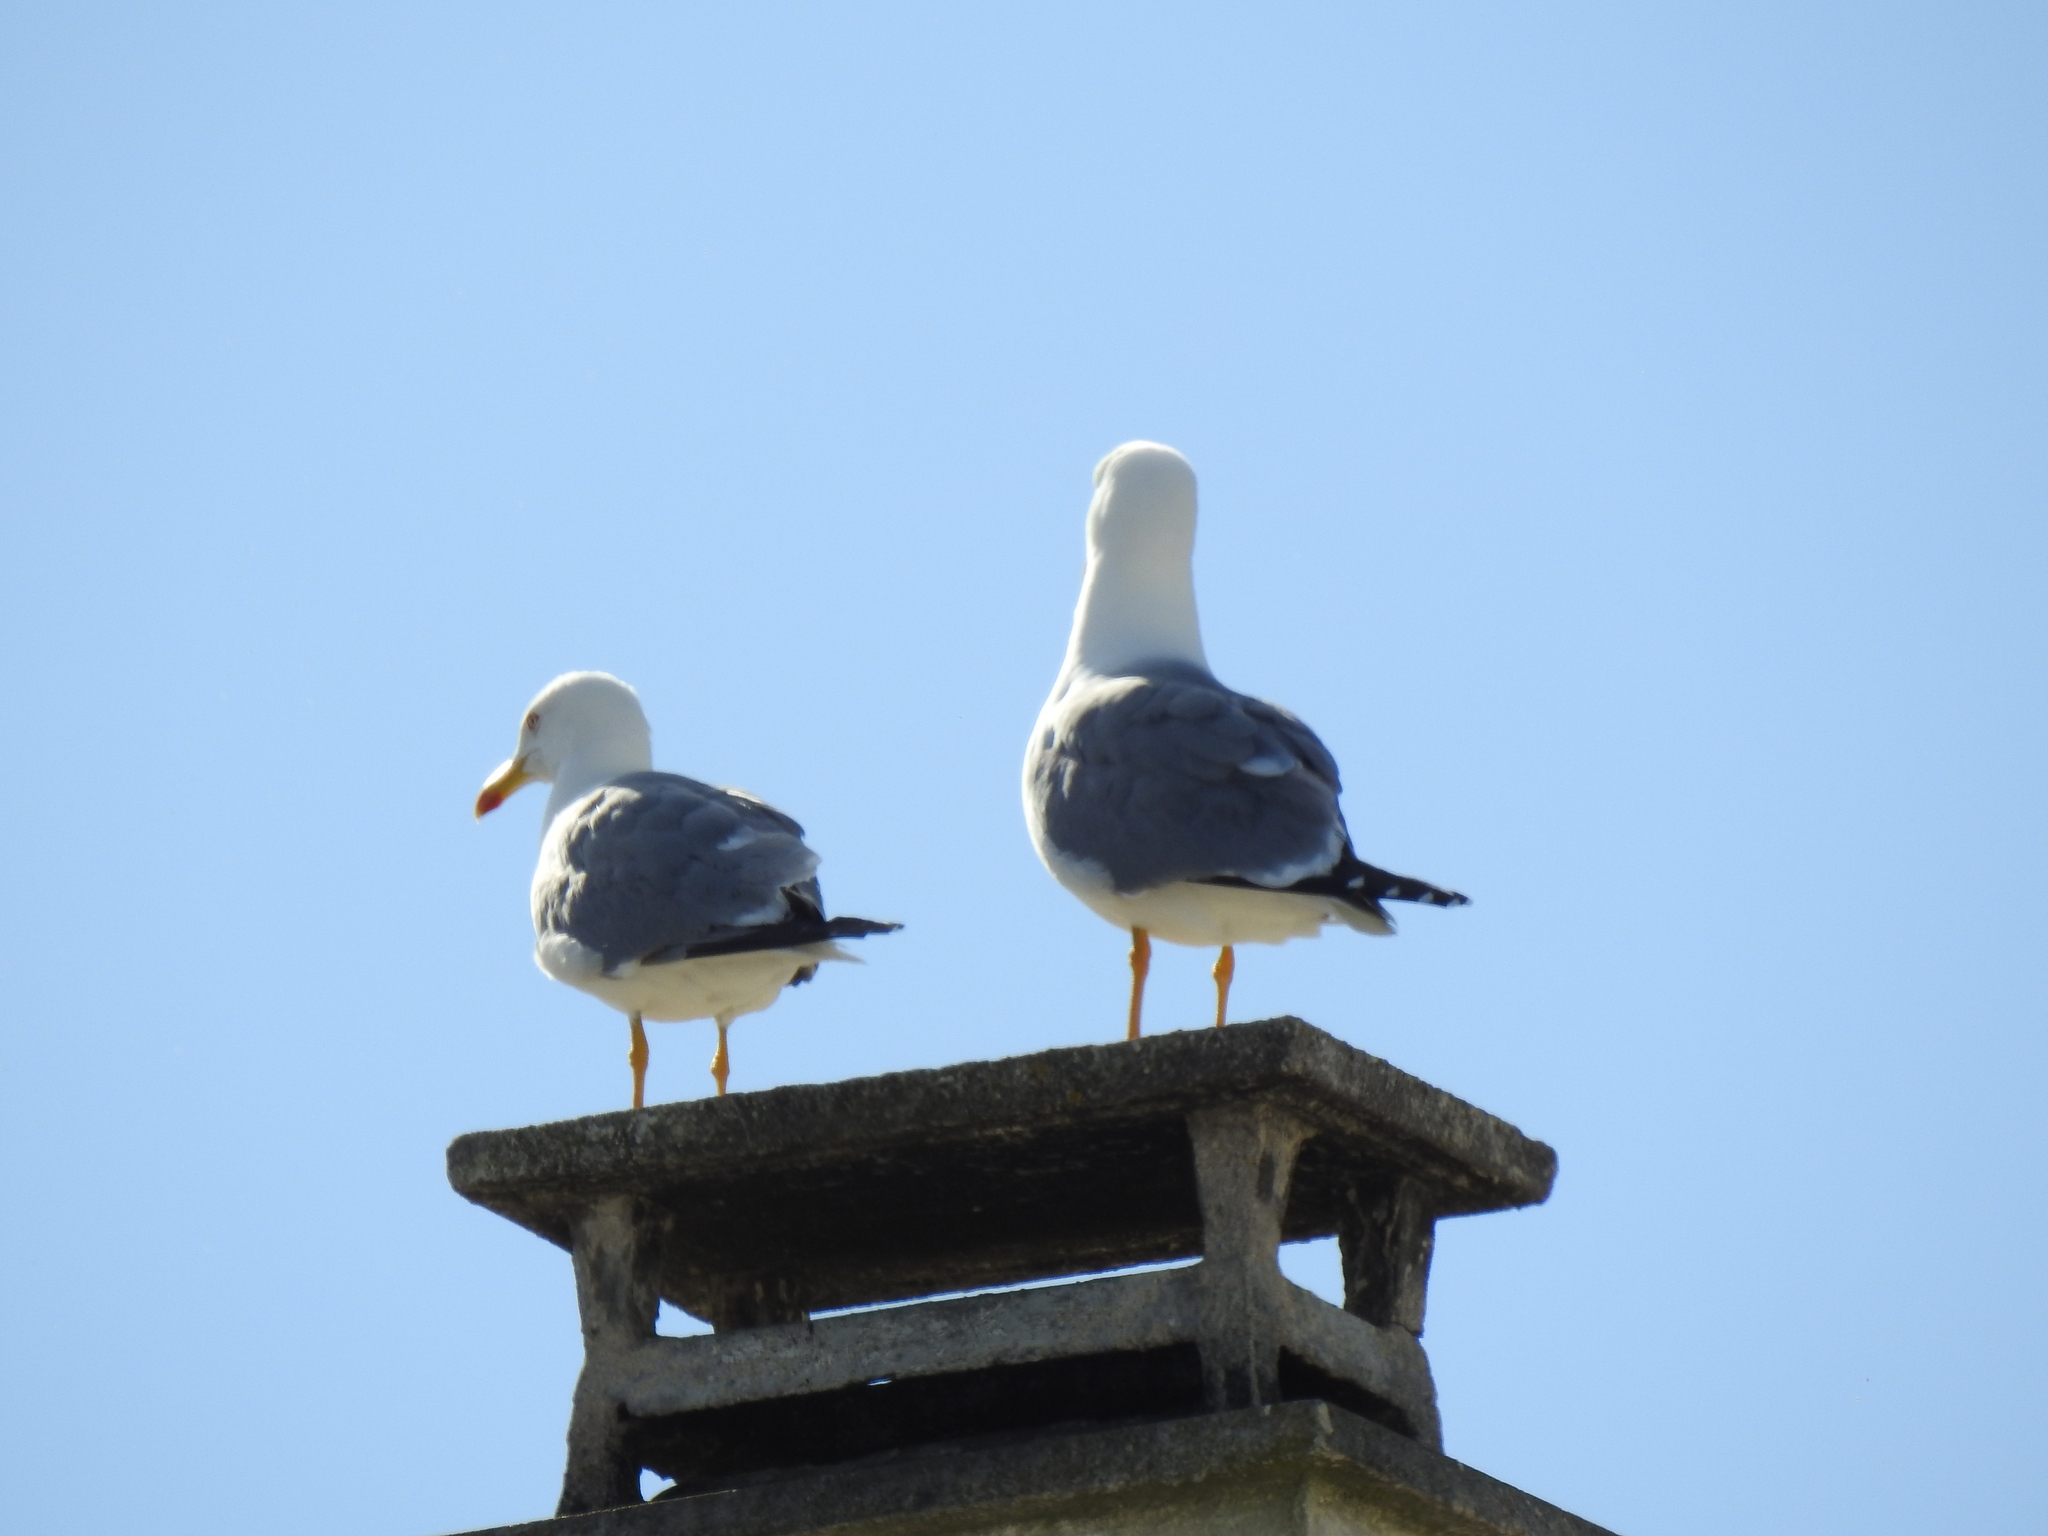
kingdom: Animalia
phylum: Chordata
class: Aves
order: Charadriiformes
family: Laridae
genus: Larus
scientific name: Larus michahellis
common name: Yellow-legged gull
